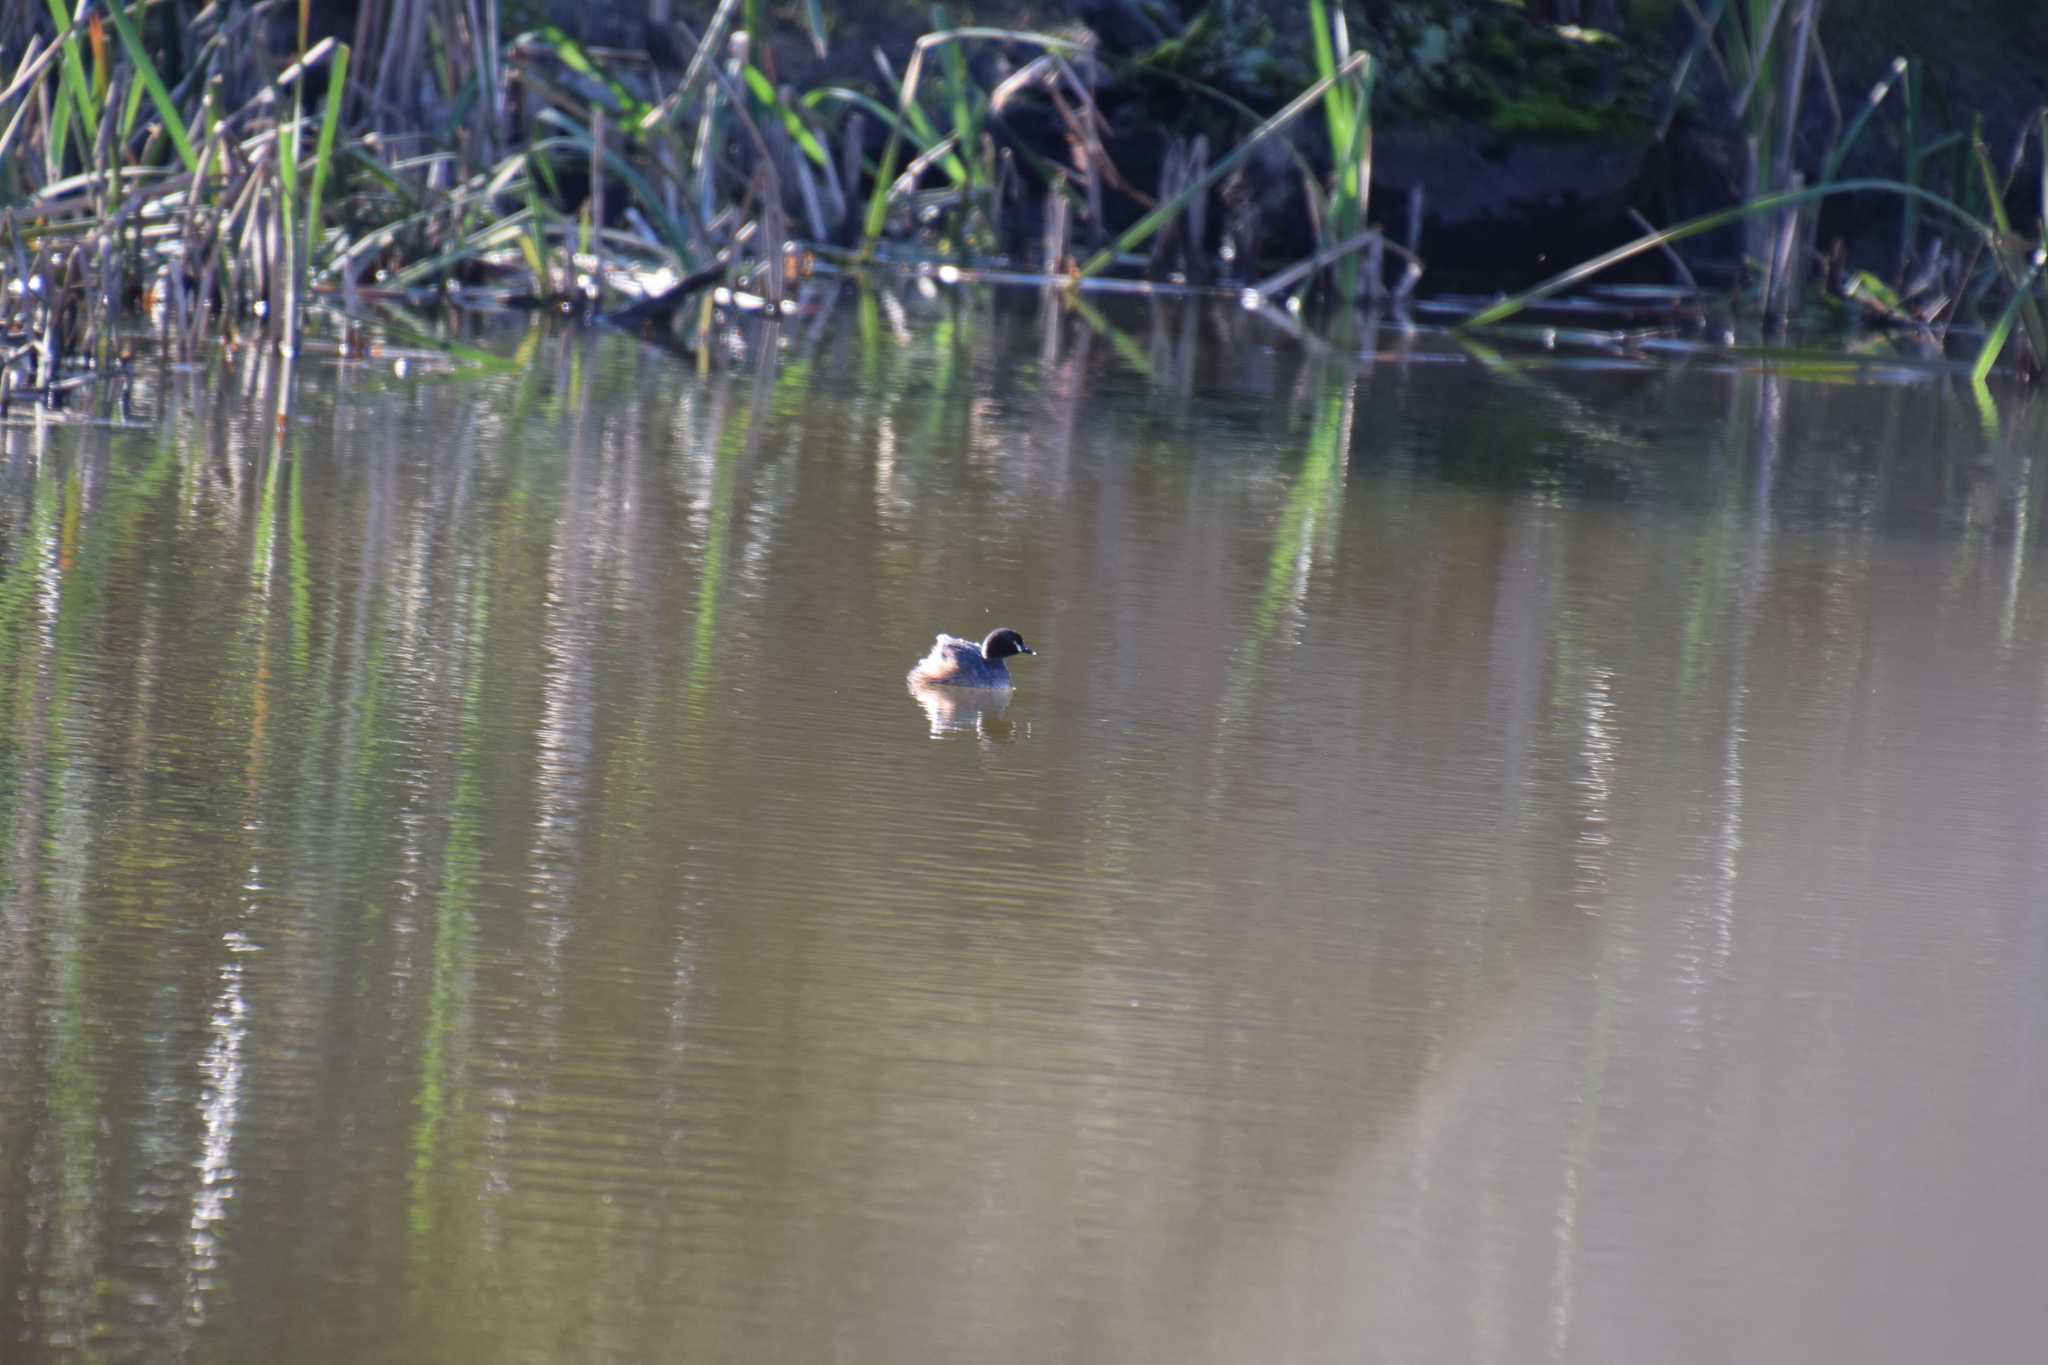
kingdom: Animalia
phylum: Chordata
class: Aves
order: Podicipediformes
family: Podicipedidae
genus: Tachybaptus
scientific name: Tachybaptus novaehollandiae
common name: Australasian grebe
